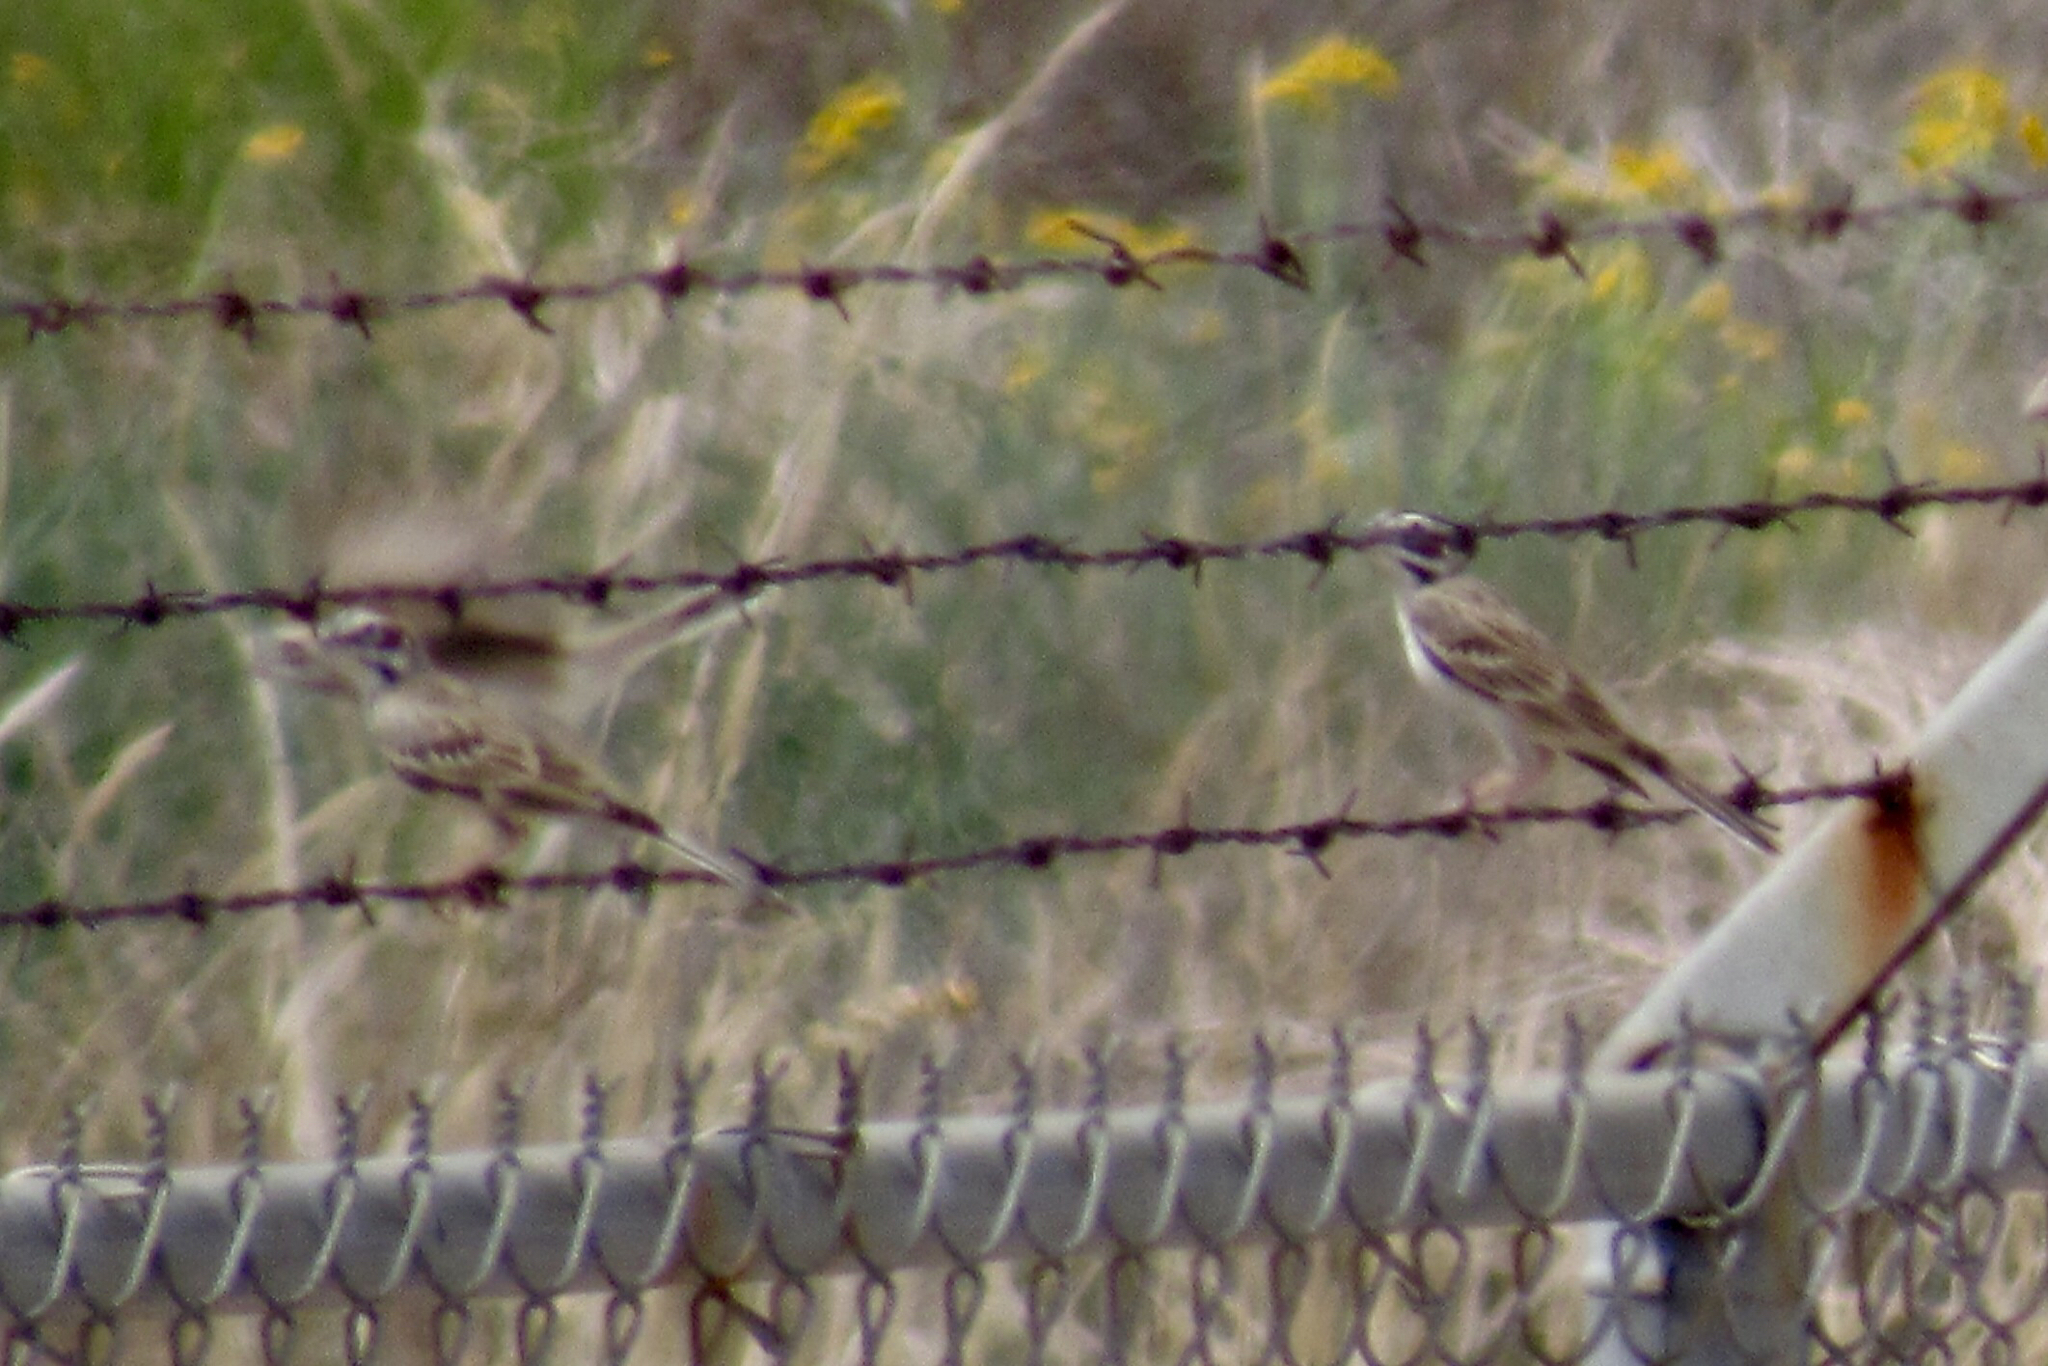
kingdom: Animalia
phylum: Chordata
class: Aves
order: Passeriformes
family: Passerellidae
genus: Chondestes
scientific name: Chondestes grammacus
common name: Lark sparrow
